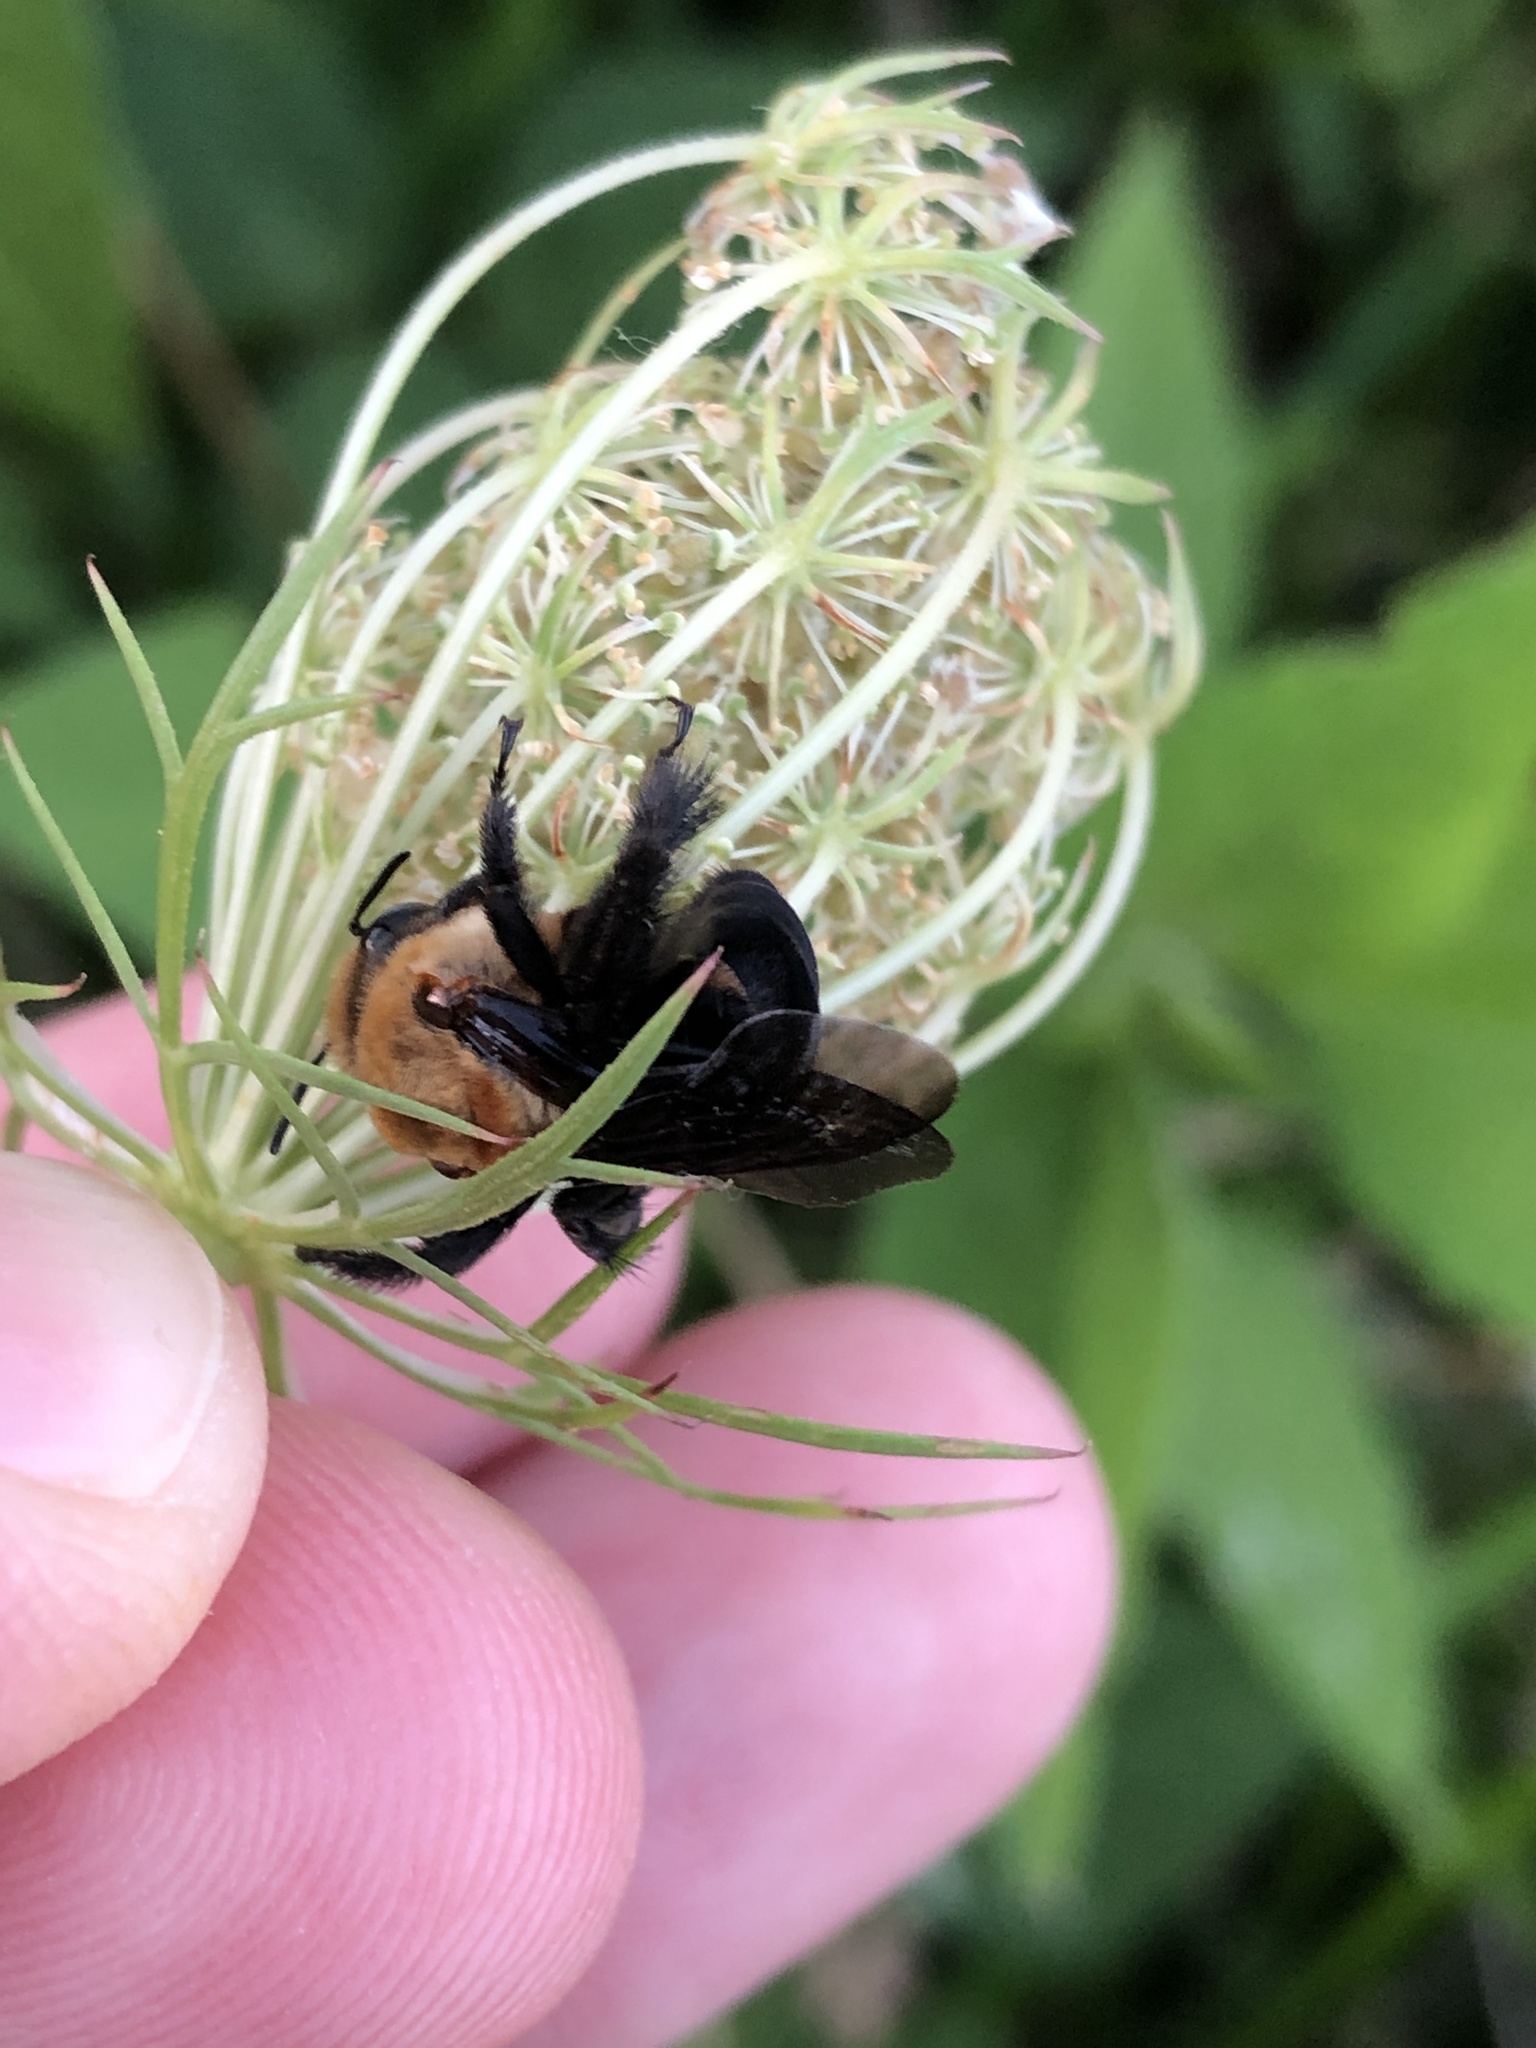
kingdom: Animalia
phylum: Arthropoda
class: Insecta
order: Hymenoptera
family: Apidae
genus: Ptilothrix
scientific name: Ptilothrix bombiformis
